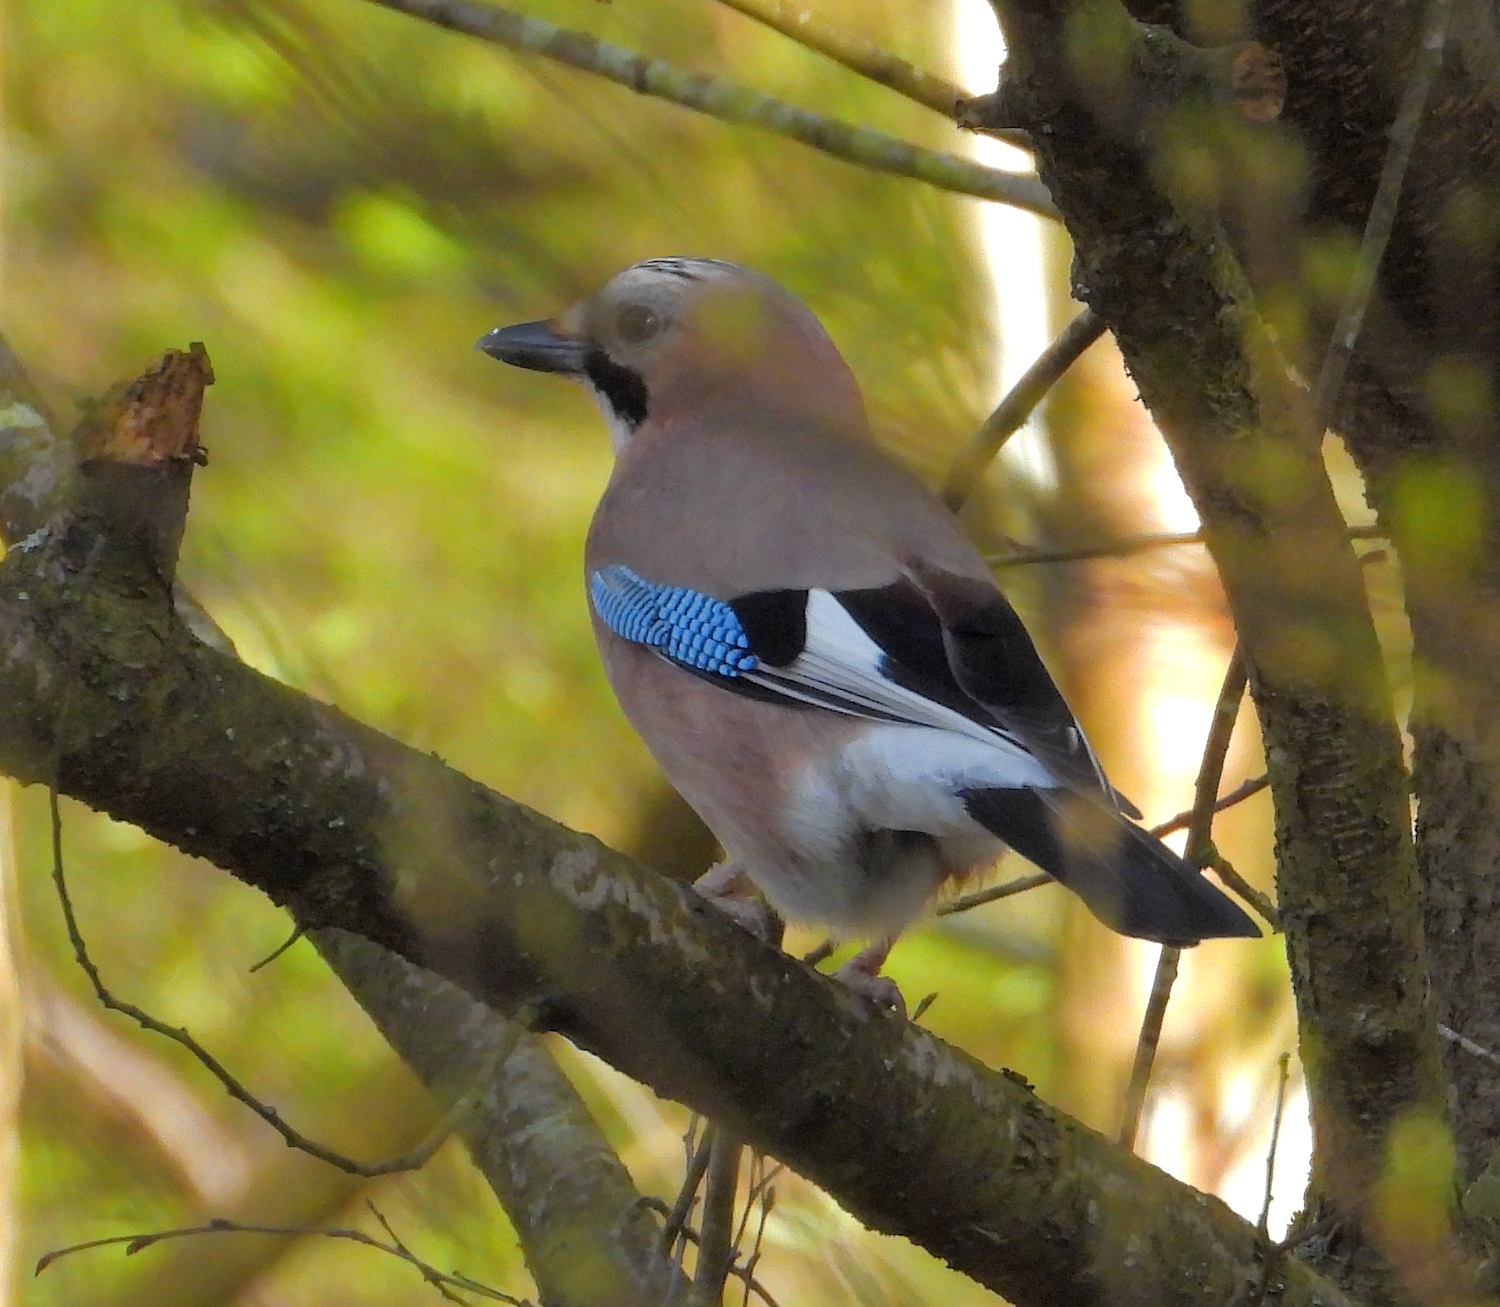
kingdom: Animalia
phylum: Chordata
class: Aves
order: Passeriformes
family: Corvidae
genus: Garrulus
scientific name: Garrulus glandarius
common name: Eurasian jay
